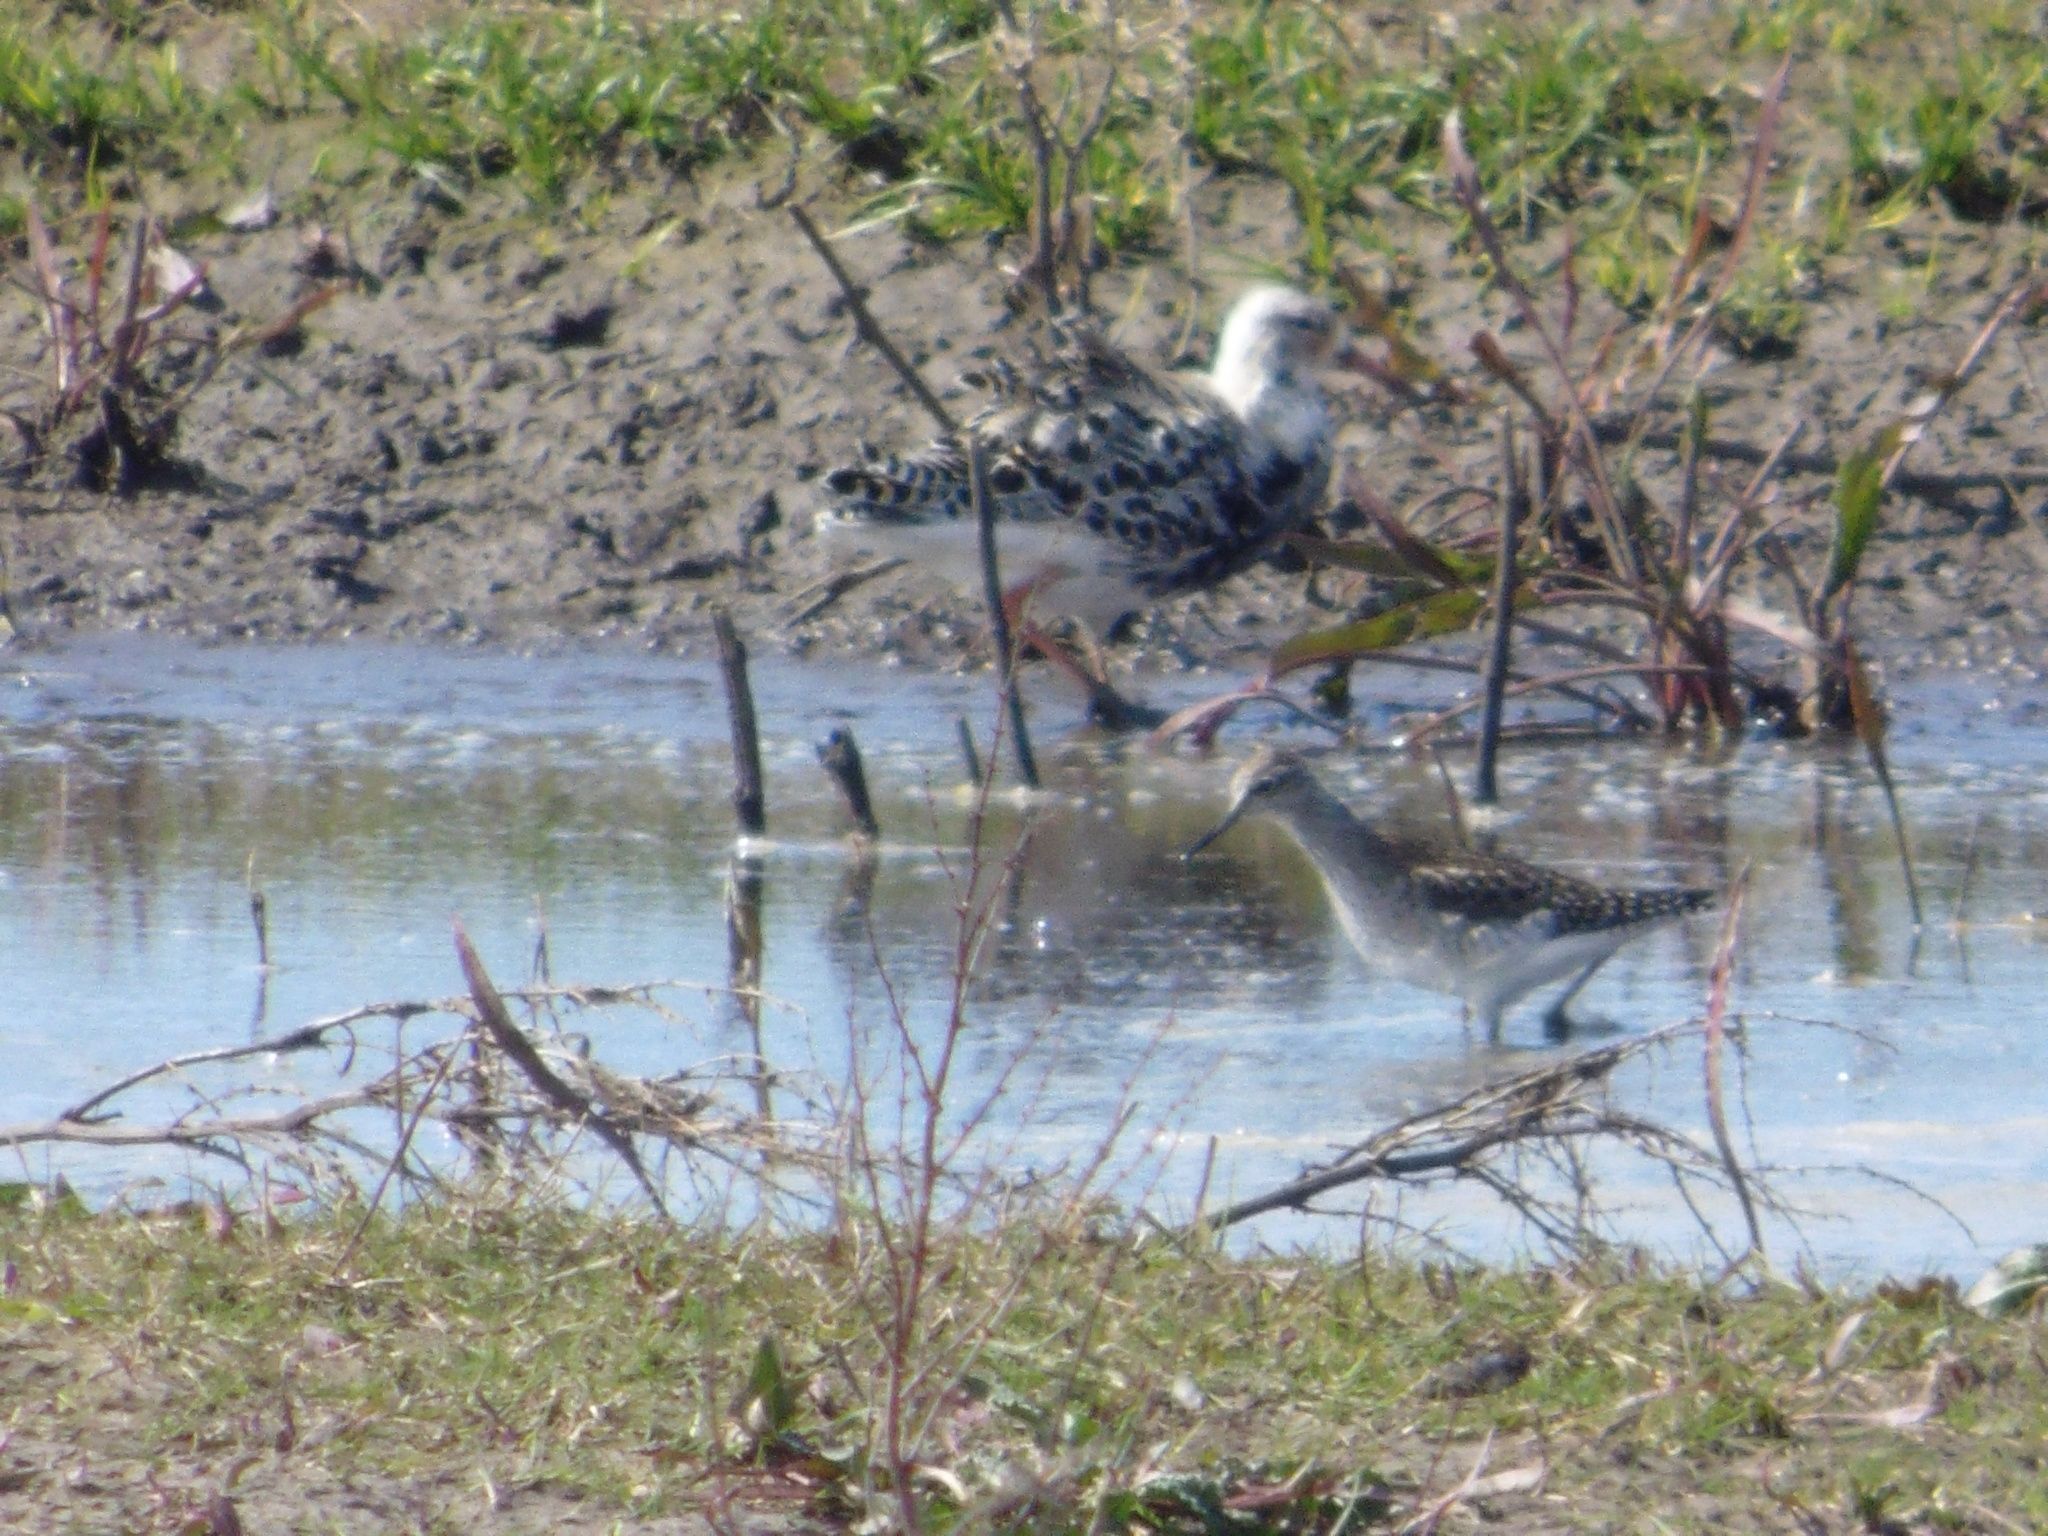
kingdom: Animalia
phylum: Chordata
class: Aves
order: Charadriiformes
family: Scolopacidae
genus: Tringa
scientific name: Tringa glareola
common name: Wood sandpiper
